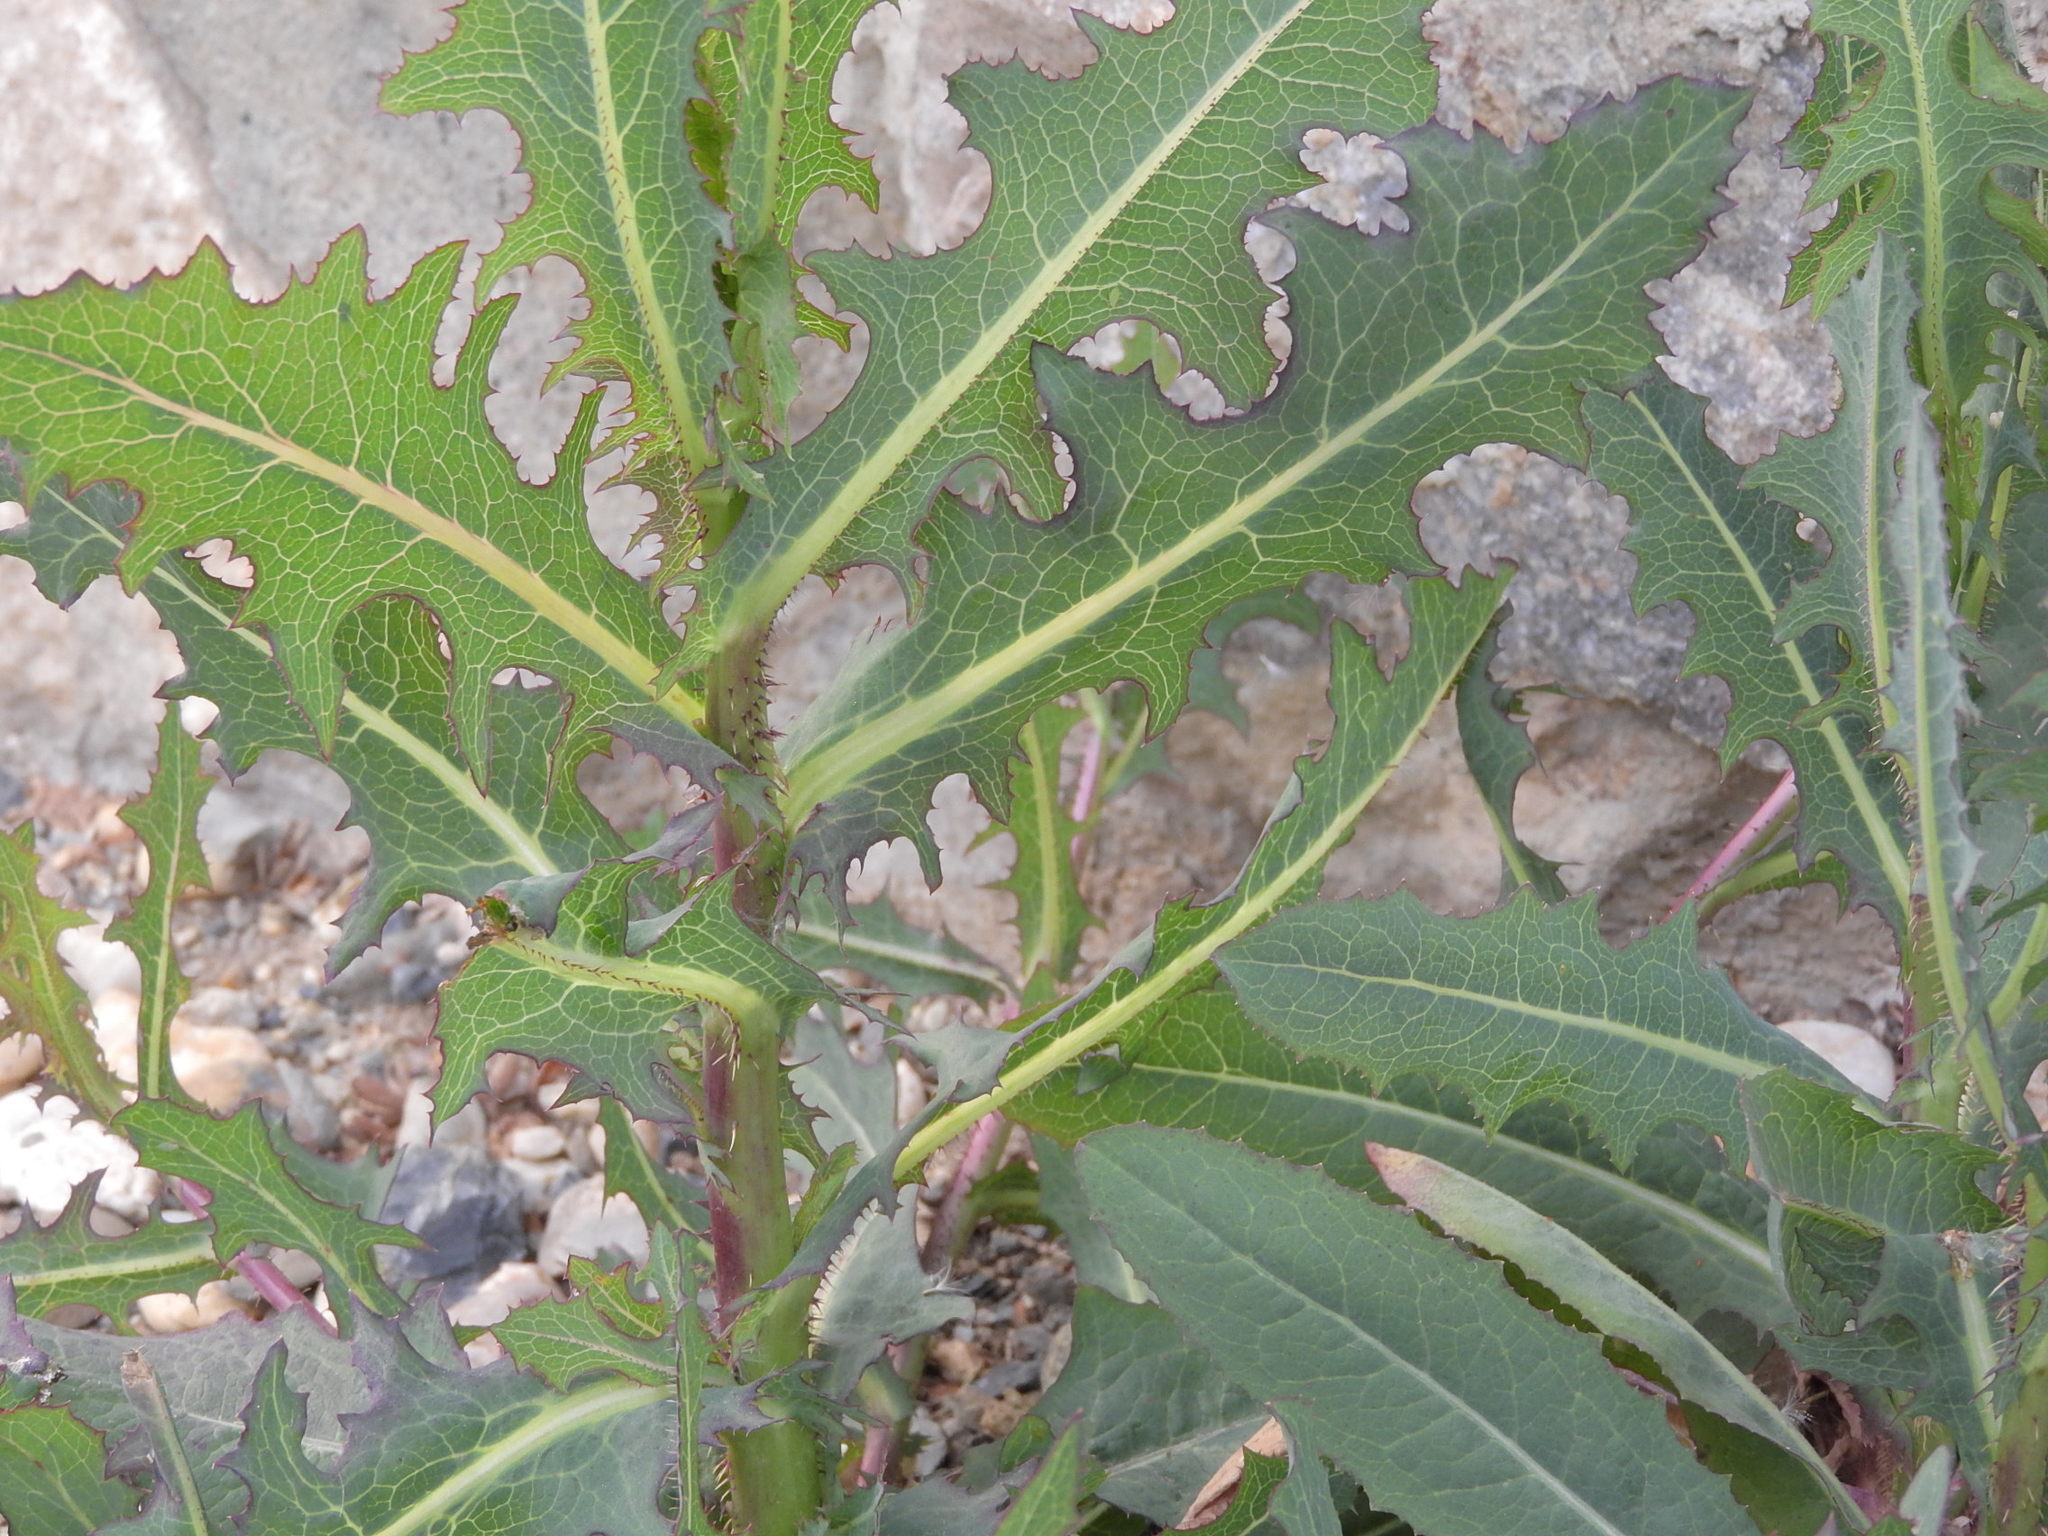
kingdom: Plantae
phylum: Tracheophyta
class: Magnoliopsida
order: Asterales
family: Asteraceae
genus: Lactuca
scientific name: Lactuca serriola
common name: Prickly lettuce
